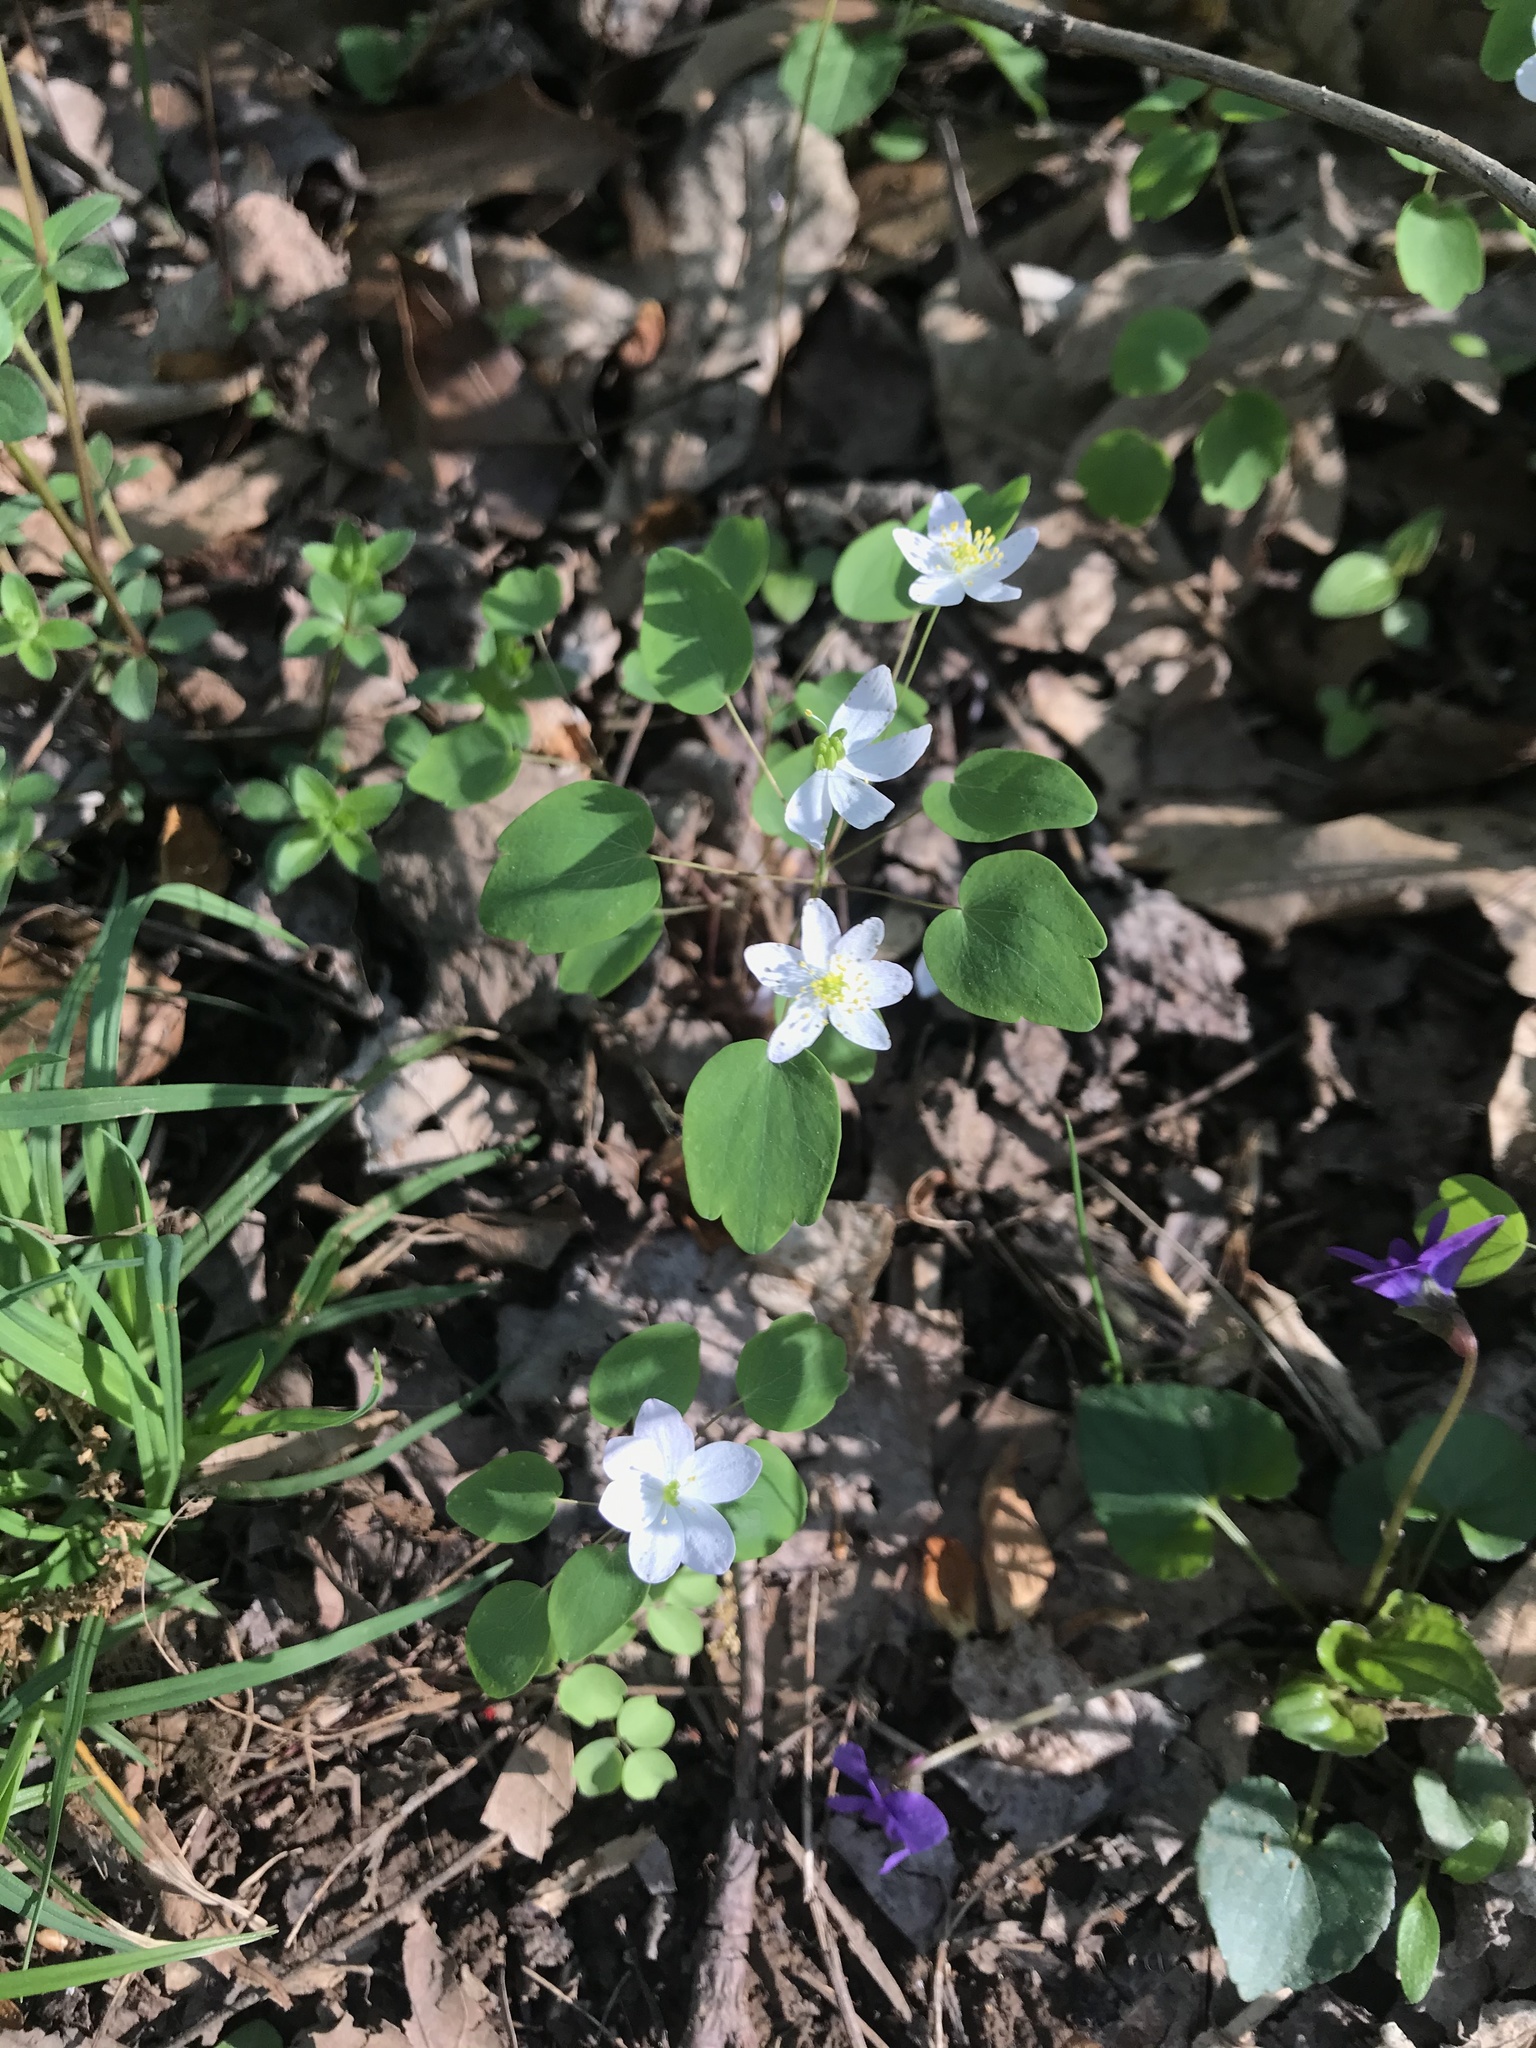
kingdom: Plantae
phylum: Tracheophyta
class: Magnoliopsida
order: Ranunculales
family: Ranunculaceae
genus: Thalictrum
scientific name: Thalictrum thalictroides
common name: Rue-anemone
